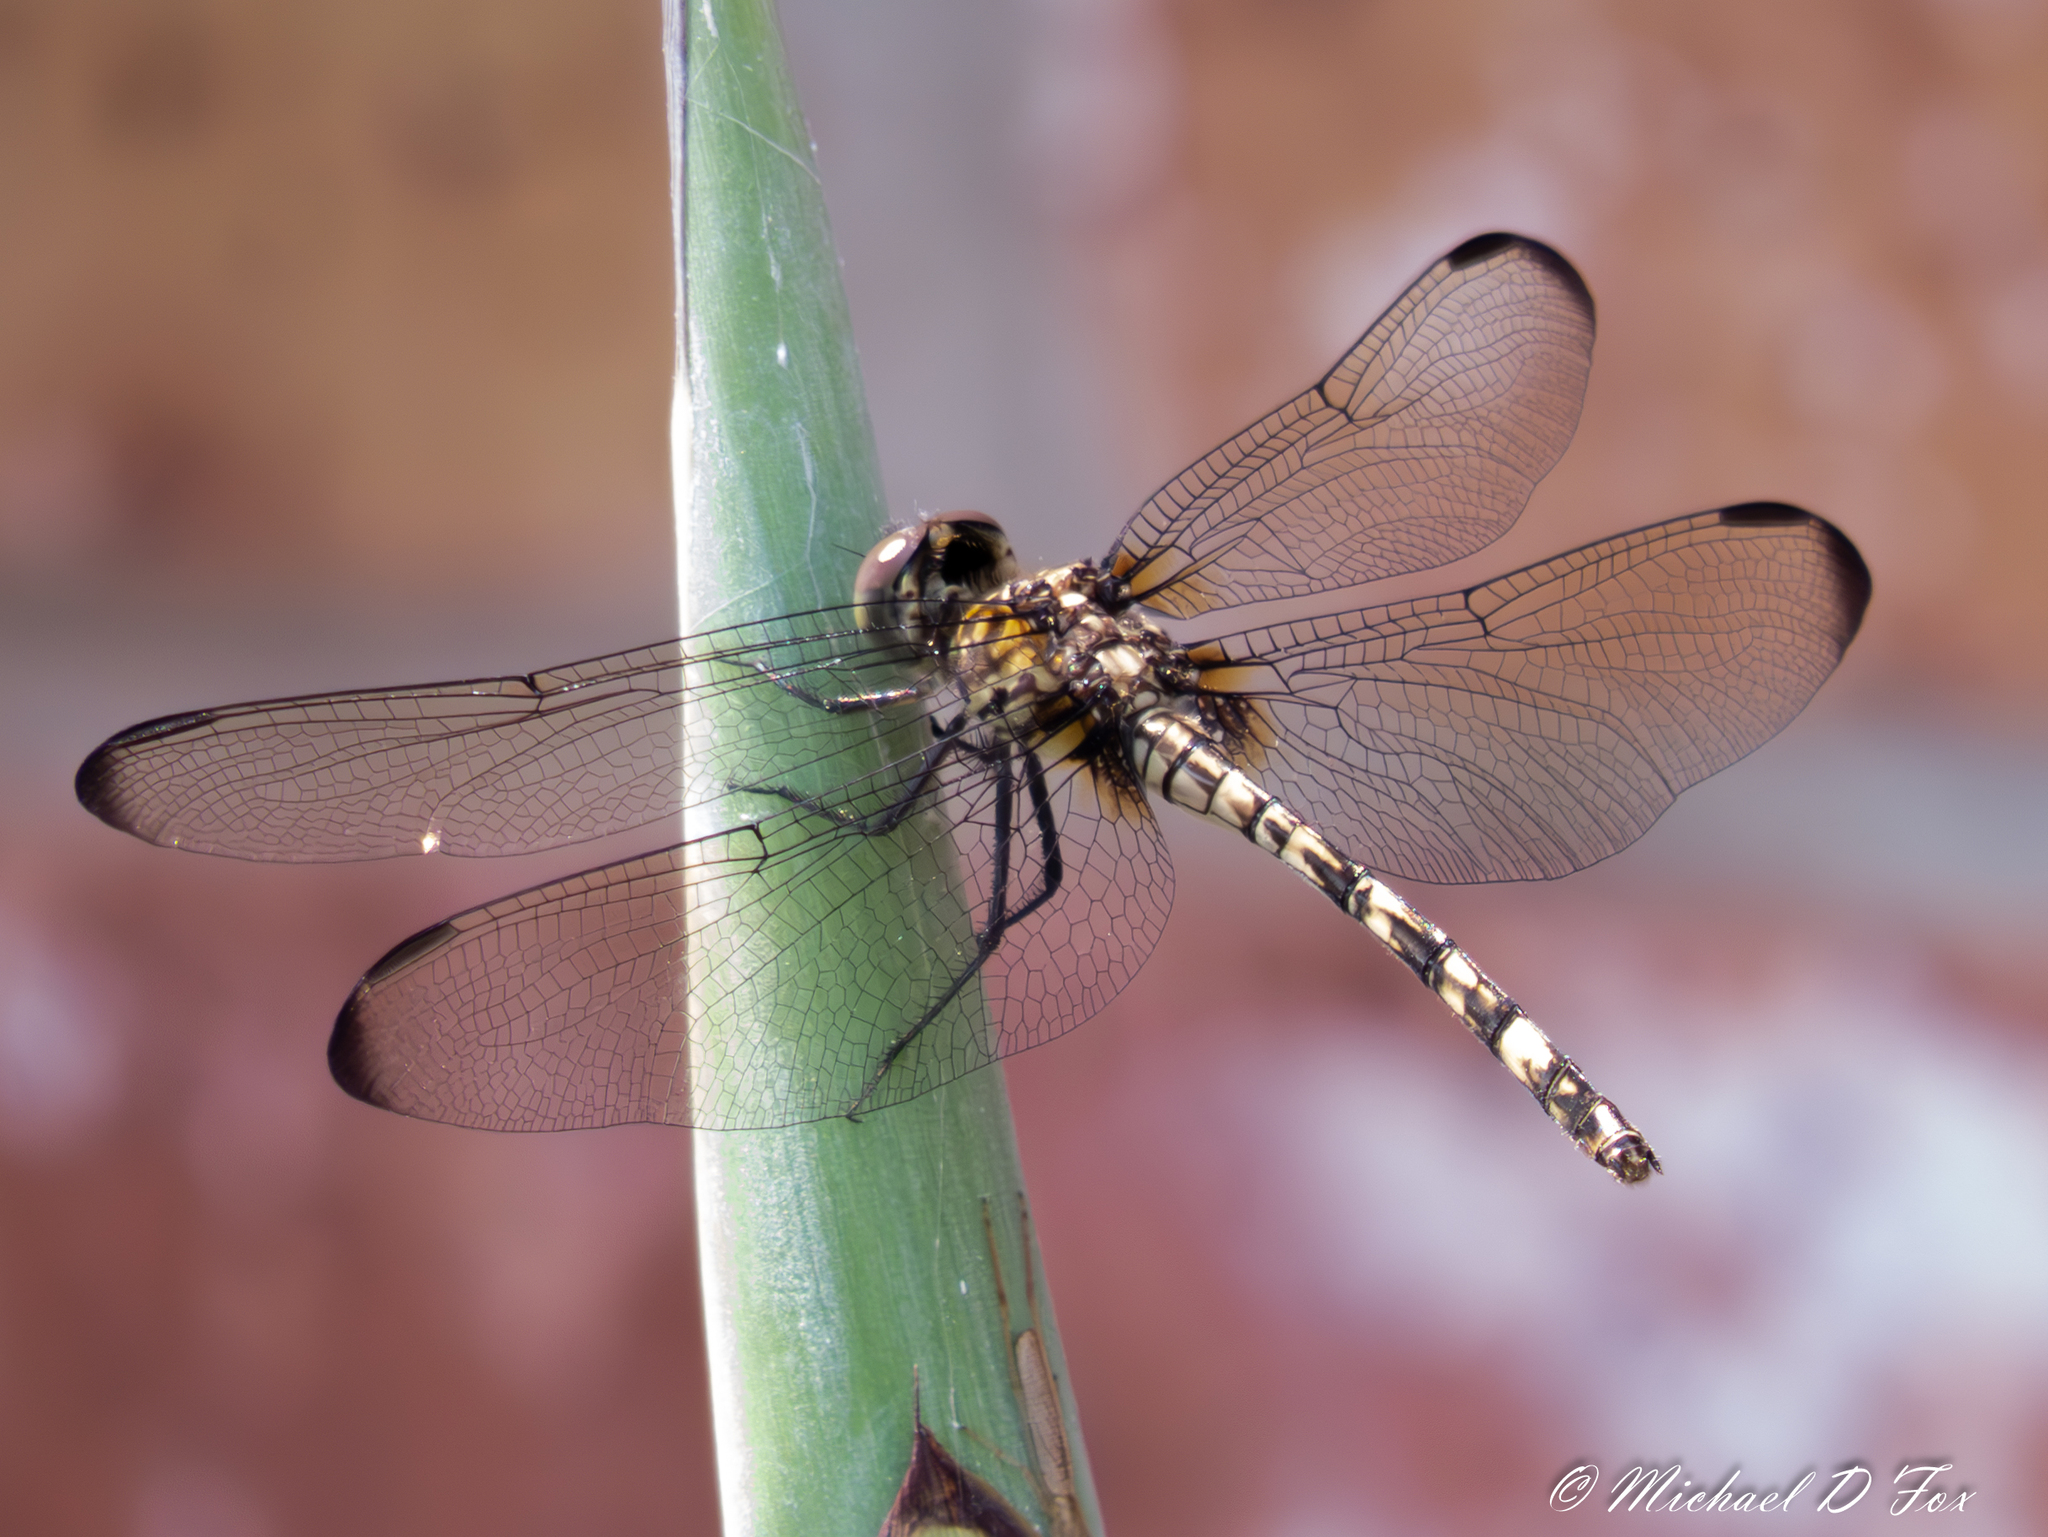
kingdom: Animalia
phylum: Arthropoda
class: Insecta
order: Odonata
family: Libellulidae
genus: Dythemis
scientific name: Dythemis nigrescens
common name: Black setwing
